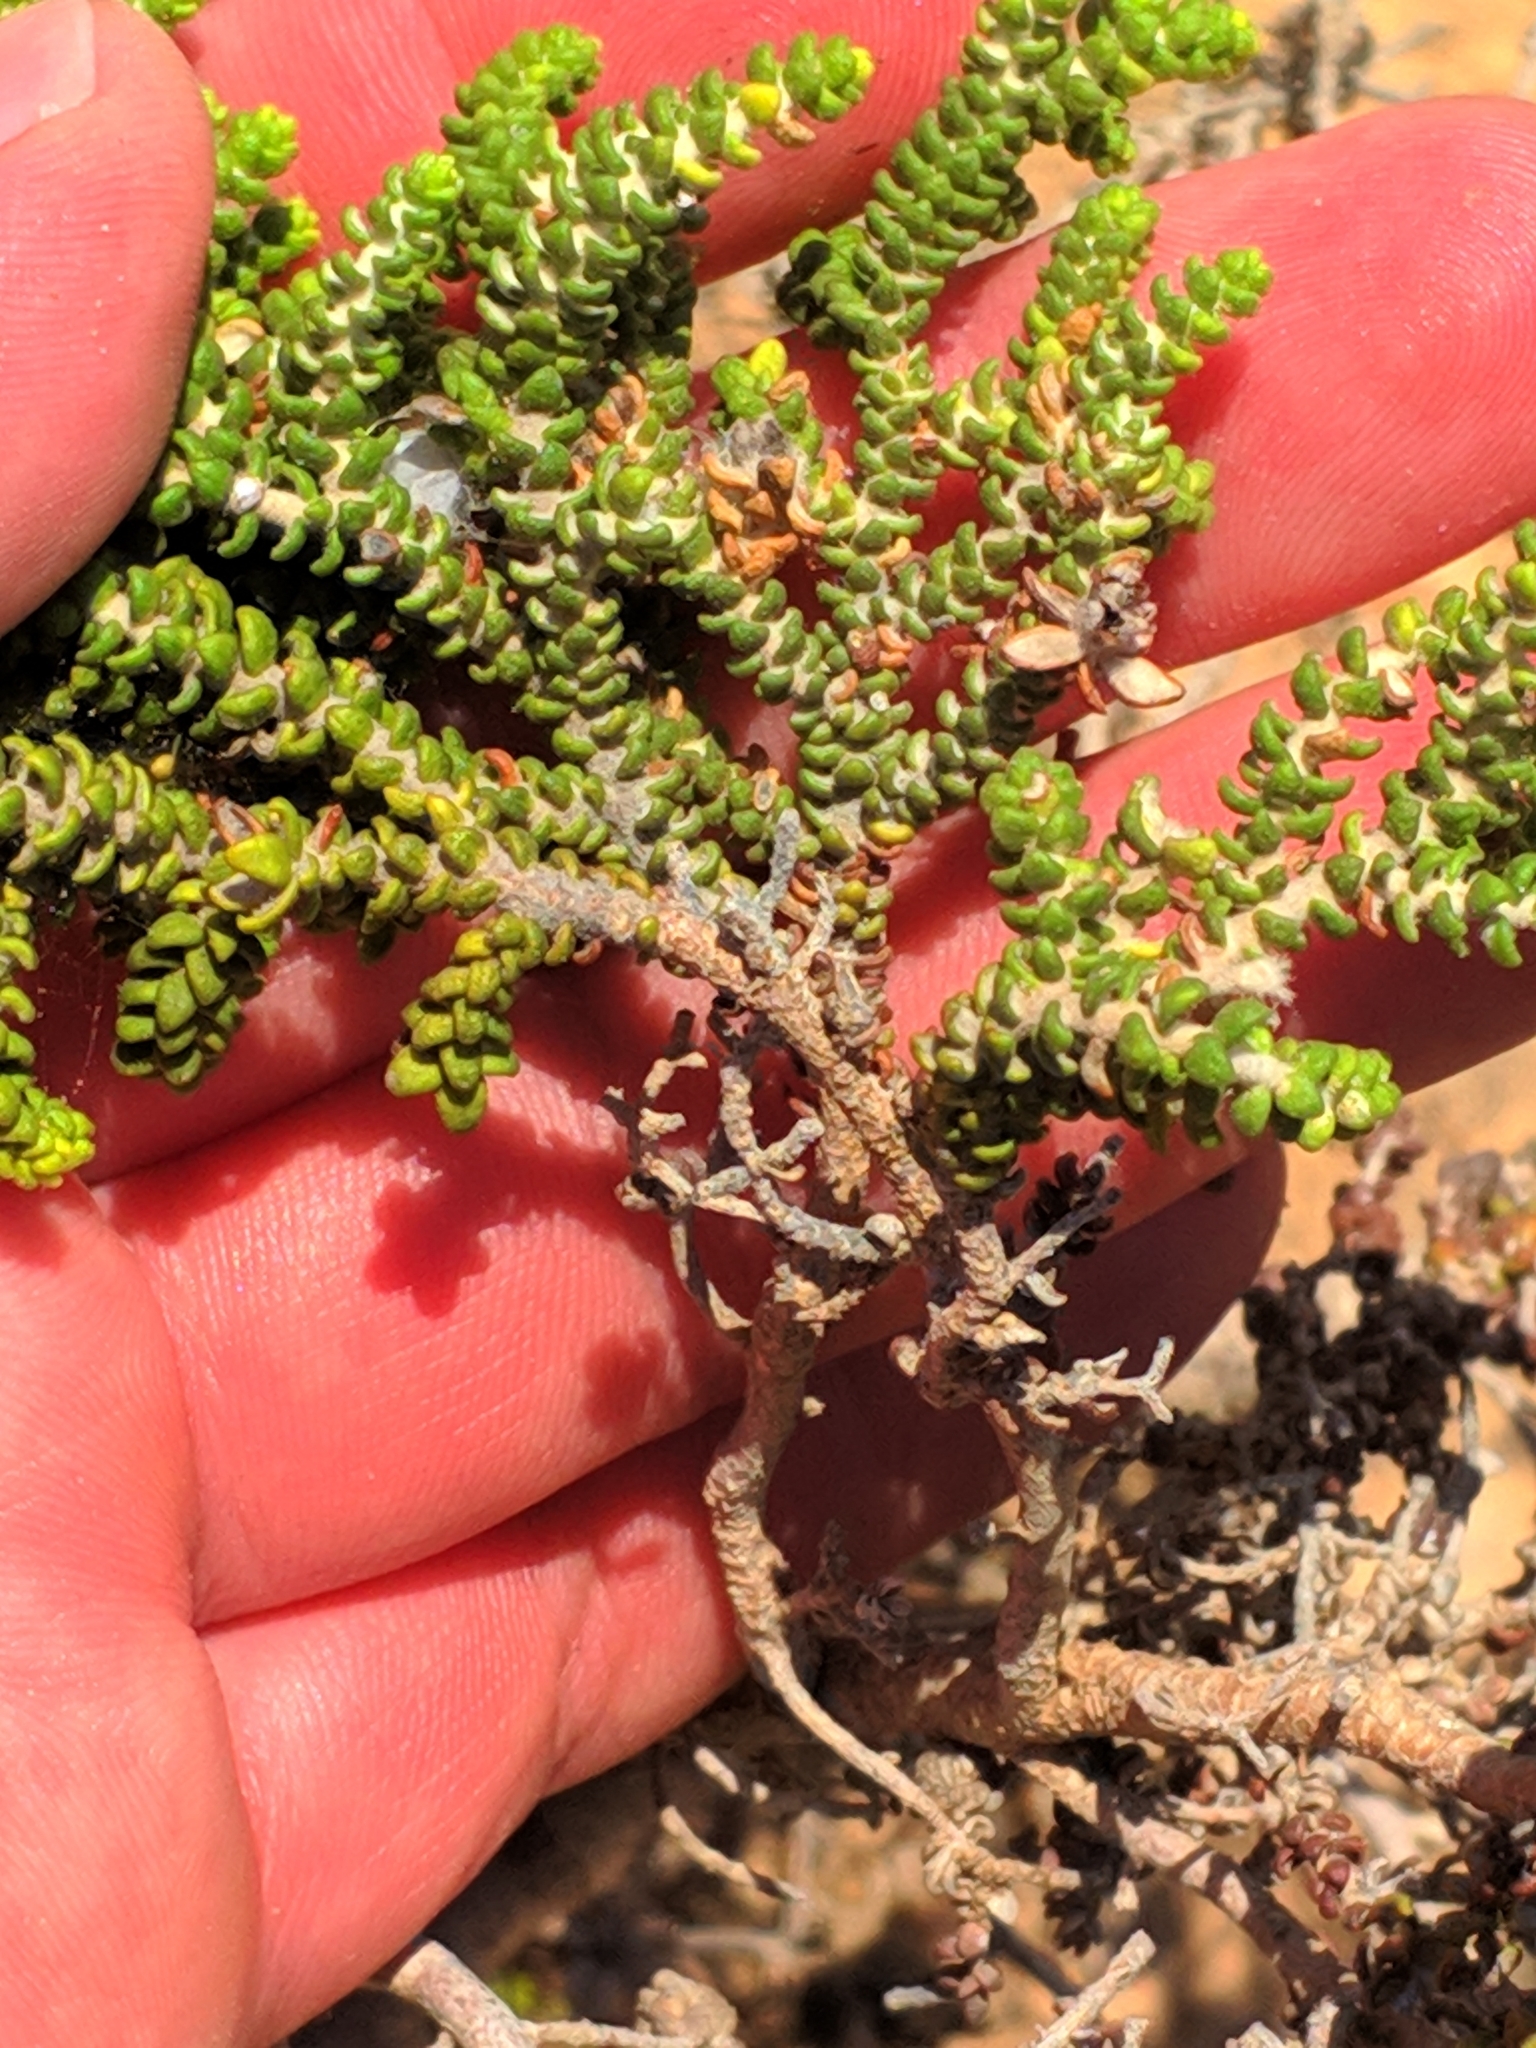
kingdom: Plantae
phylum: Tracheophyta
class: Magnoliopsida
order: Malvales
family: Thymelaeaceae
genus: Thymelaea
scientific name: Thymelaea hirsuta
